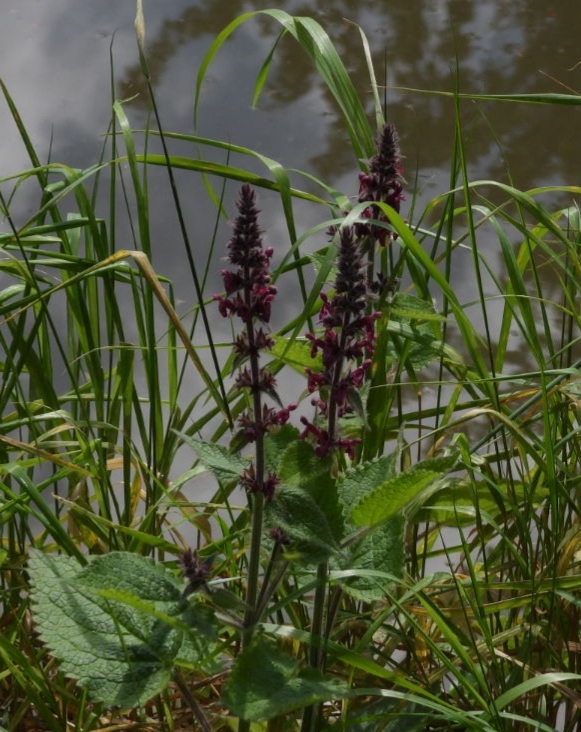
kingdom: Plantae
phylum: Tracheophyta
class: Magnoliopsida
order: Lamiales
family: Lamiaceae
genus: Stachys
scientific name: Stachys sylvatica
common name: Hedge woundwort
